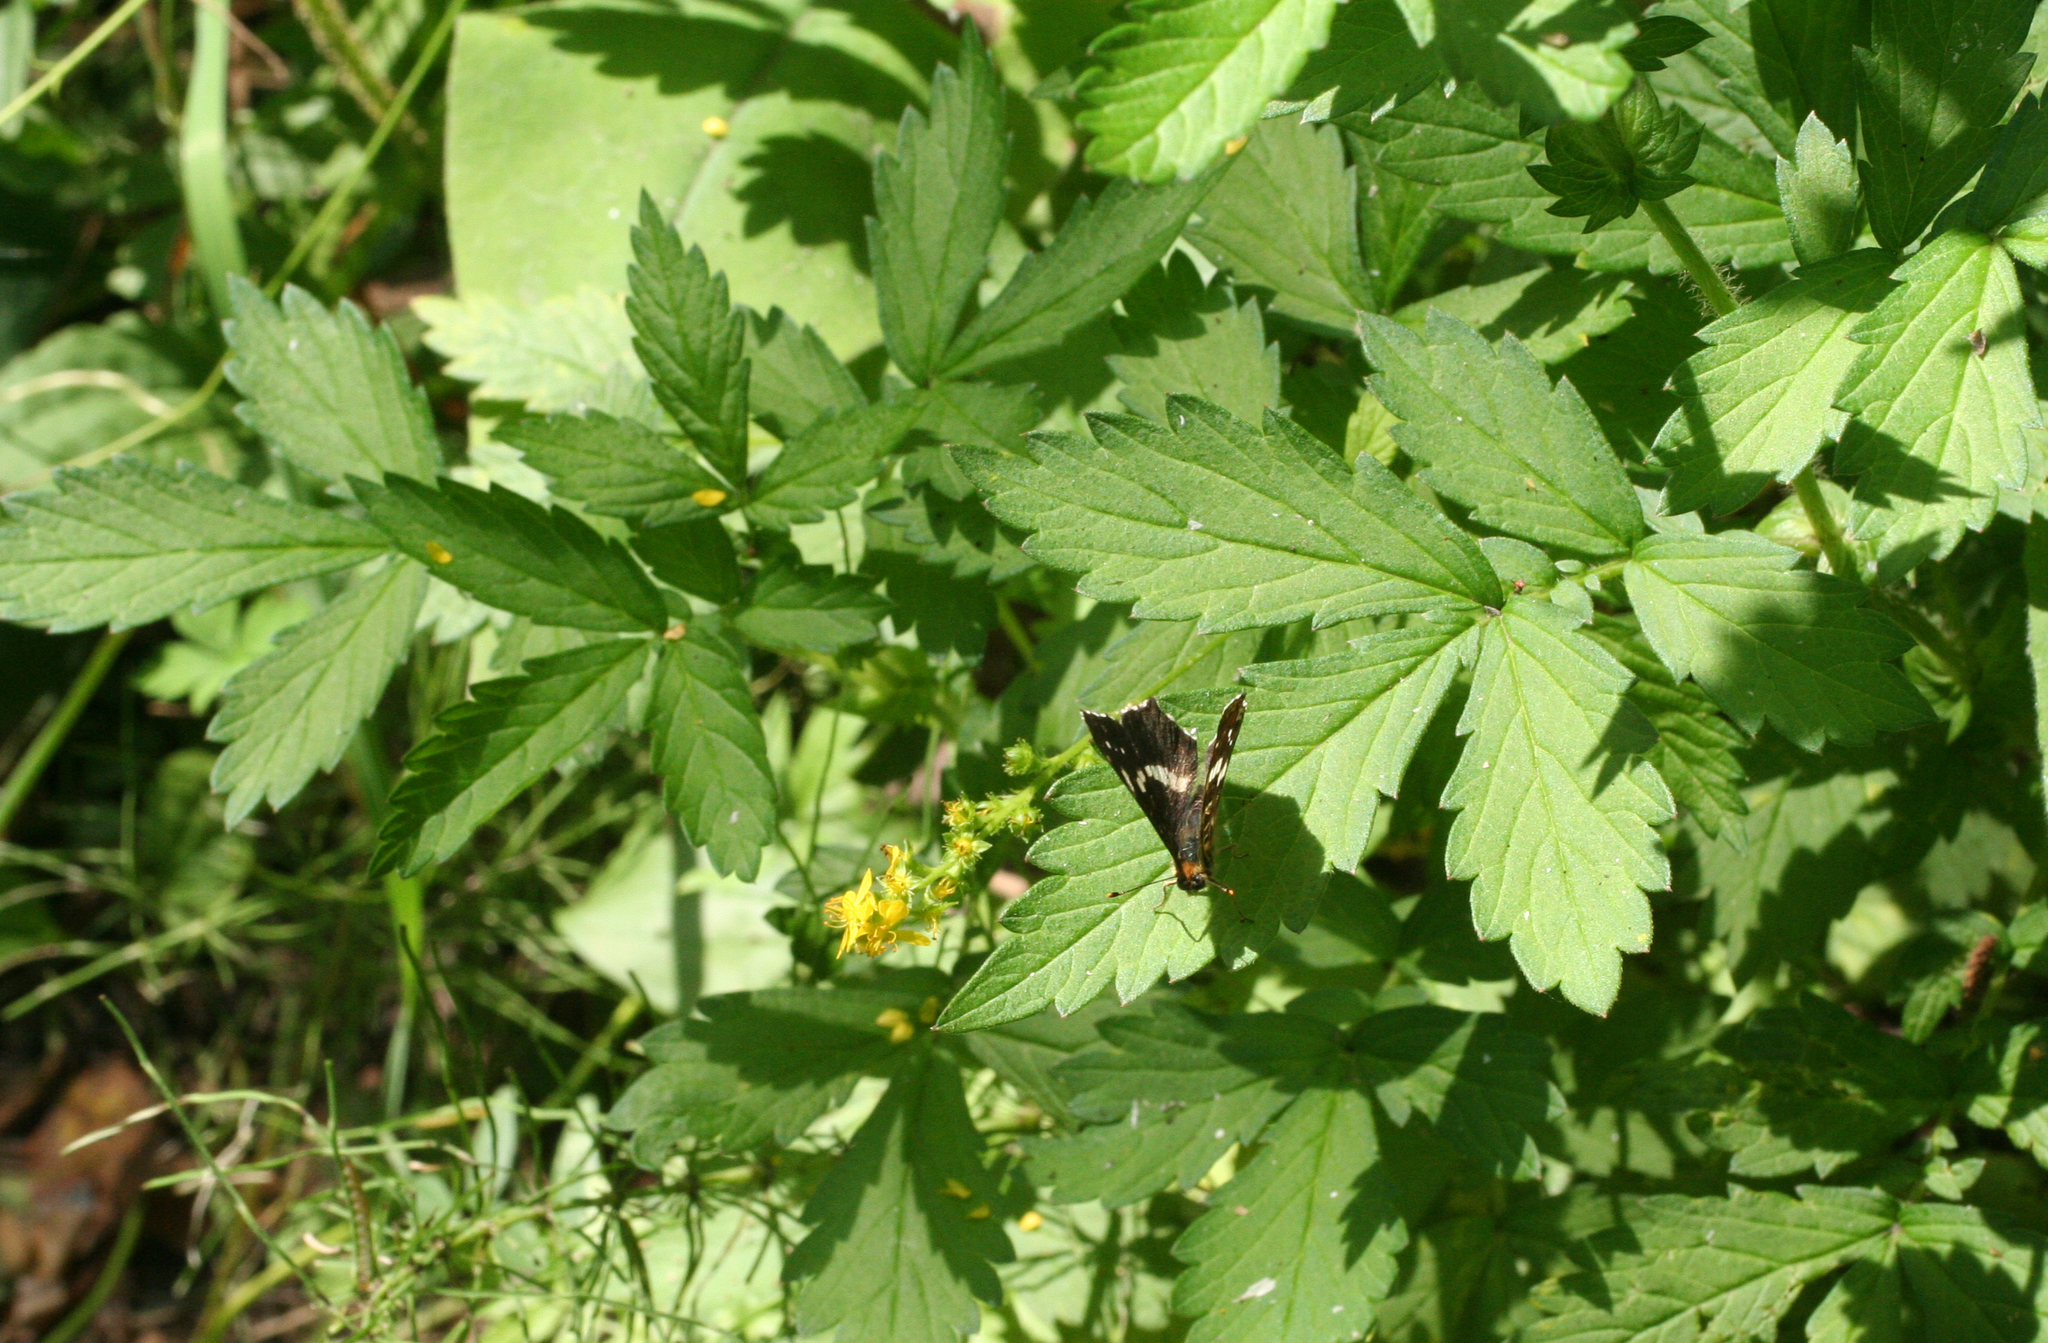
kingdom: Plantae
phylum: Tracheophyta
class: Magnoliopsida
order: Rosales
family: Rosaceae
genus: Agrimonia
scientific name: Agrimonia pilosa
